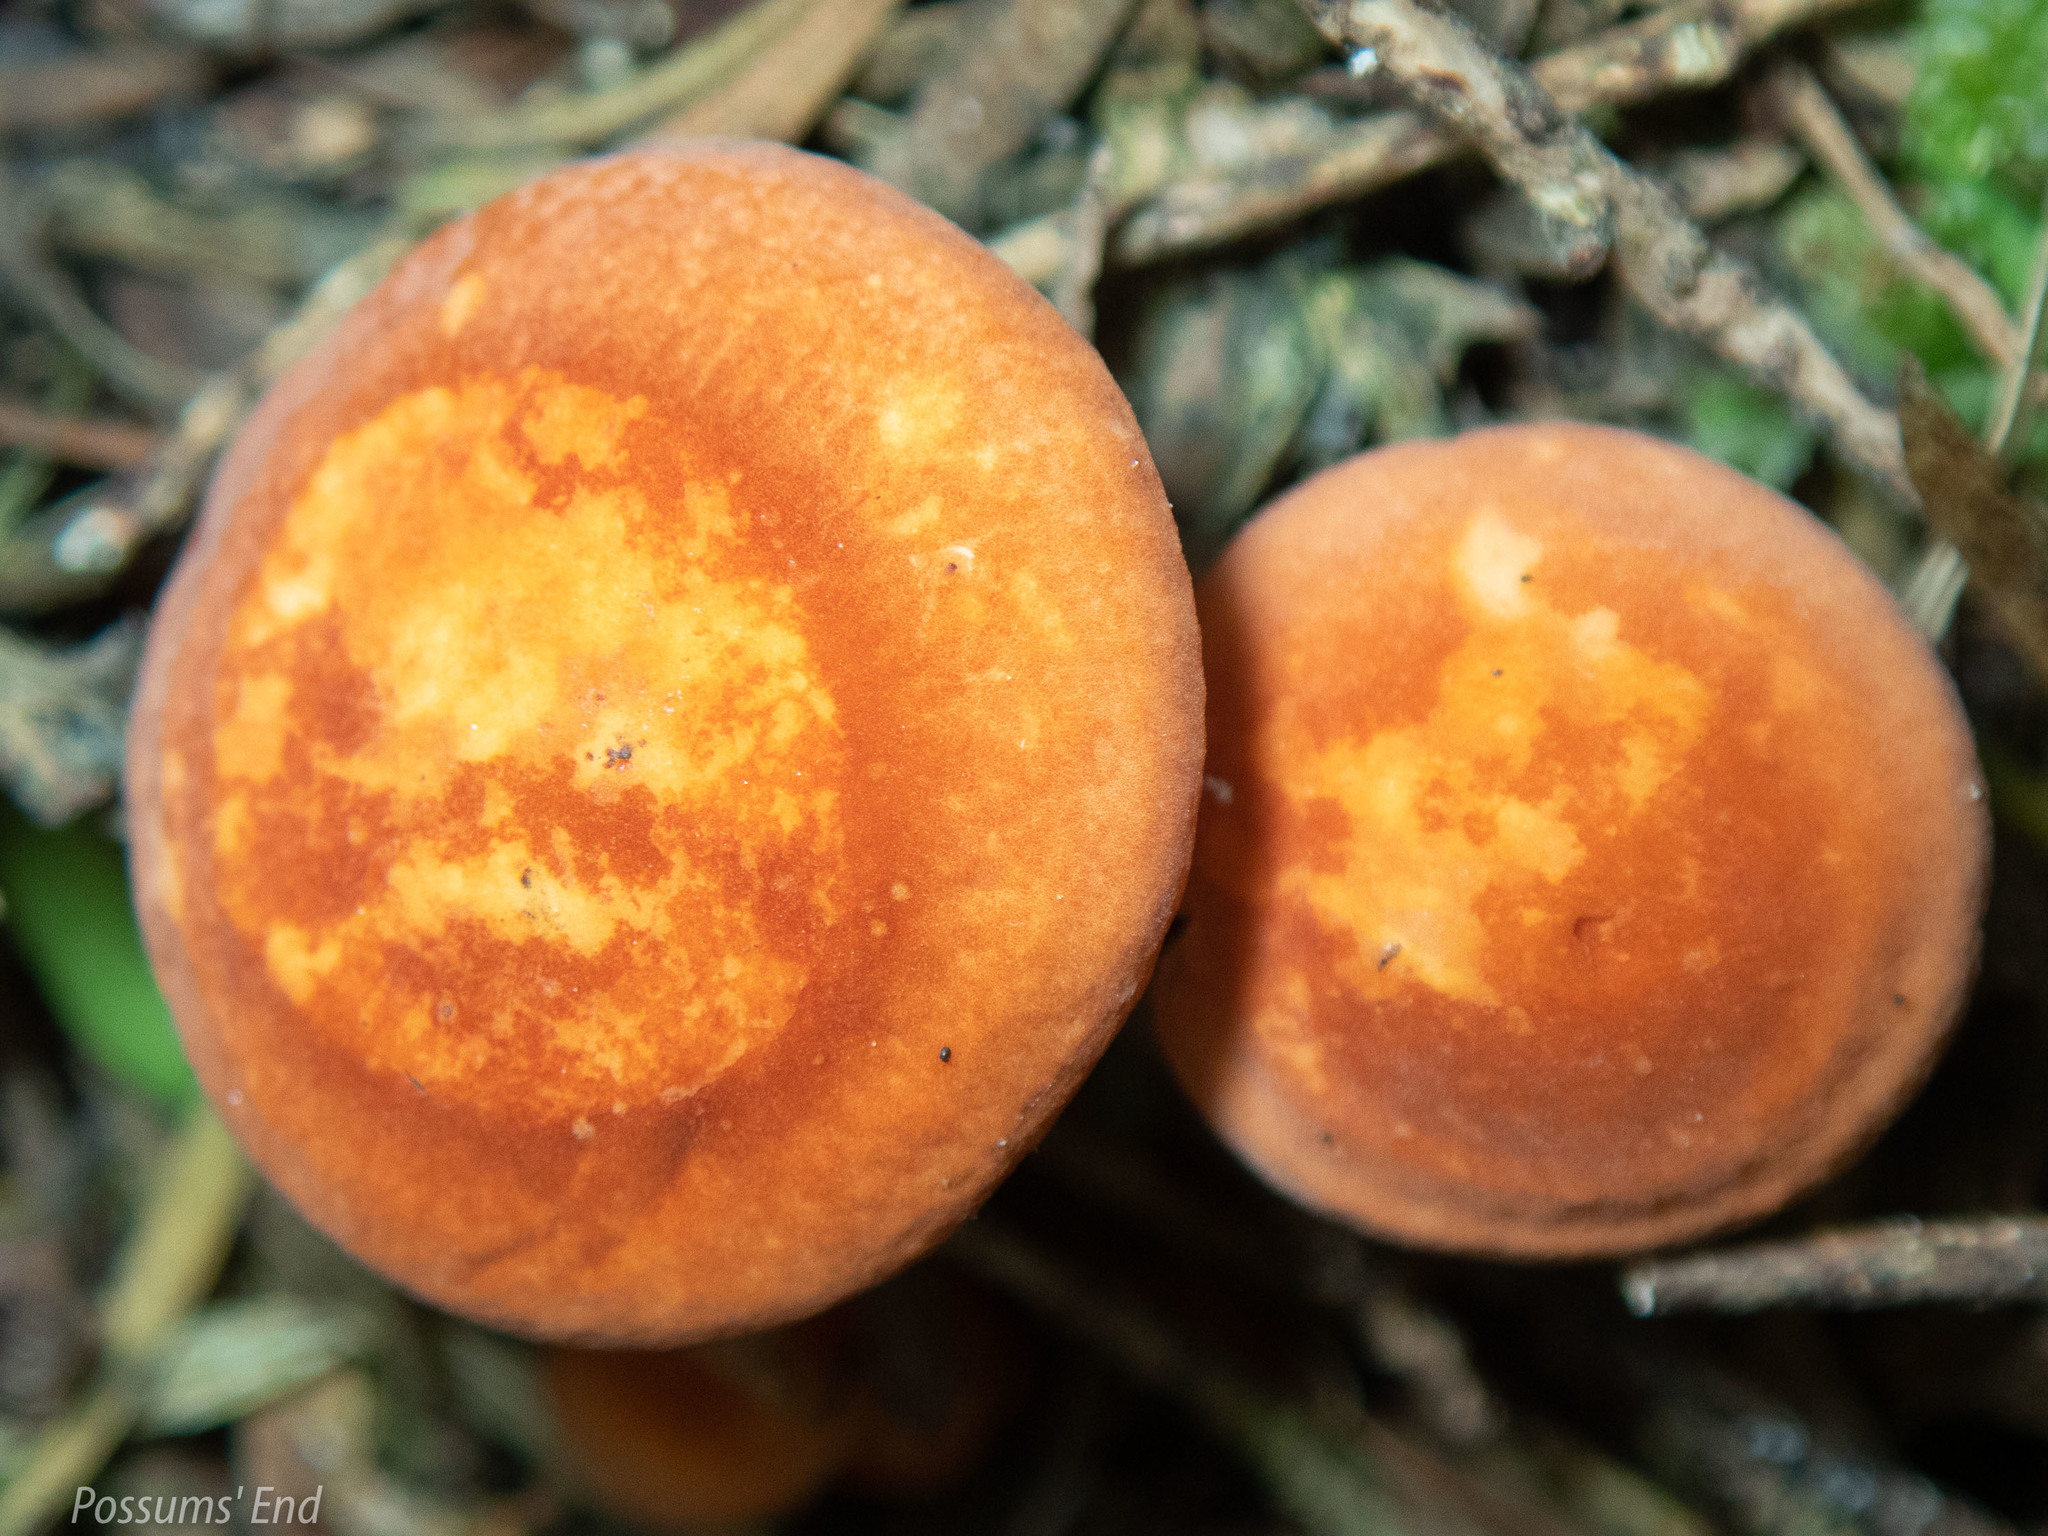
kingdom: Fungi
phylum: Basidiomycota
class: Agaricomycetes
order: Agaricales
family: Marasmiaceae
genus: Marasmius
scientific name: Marasmius elegans
